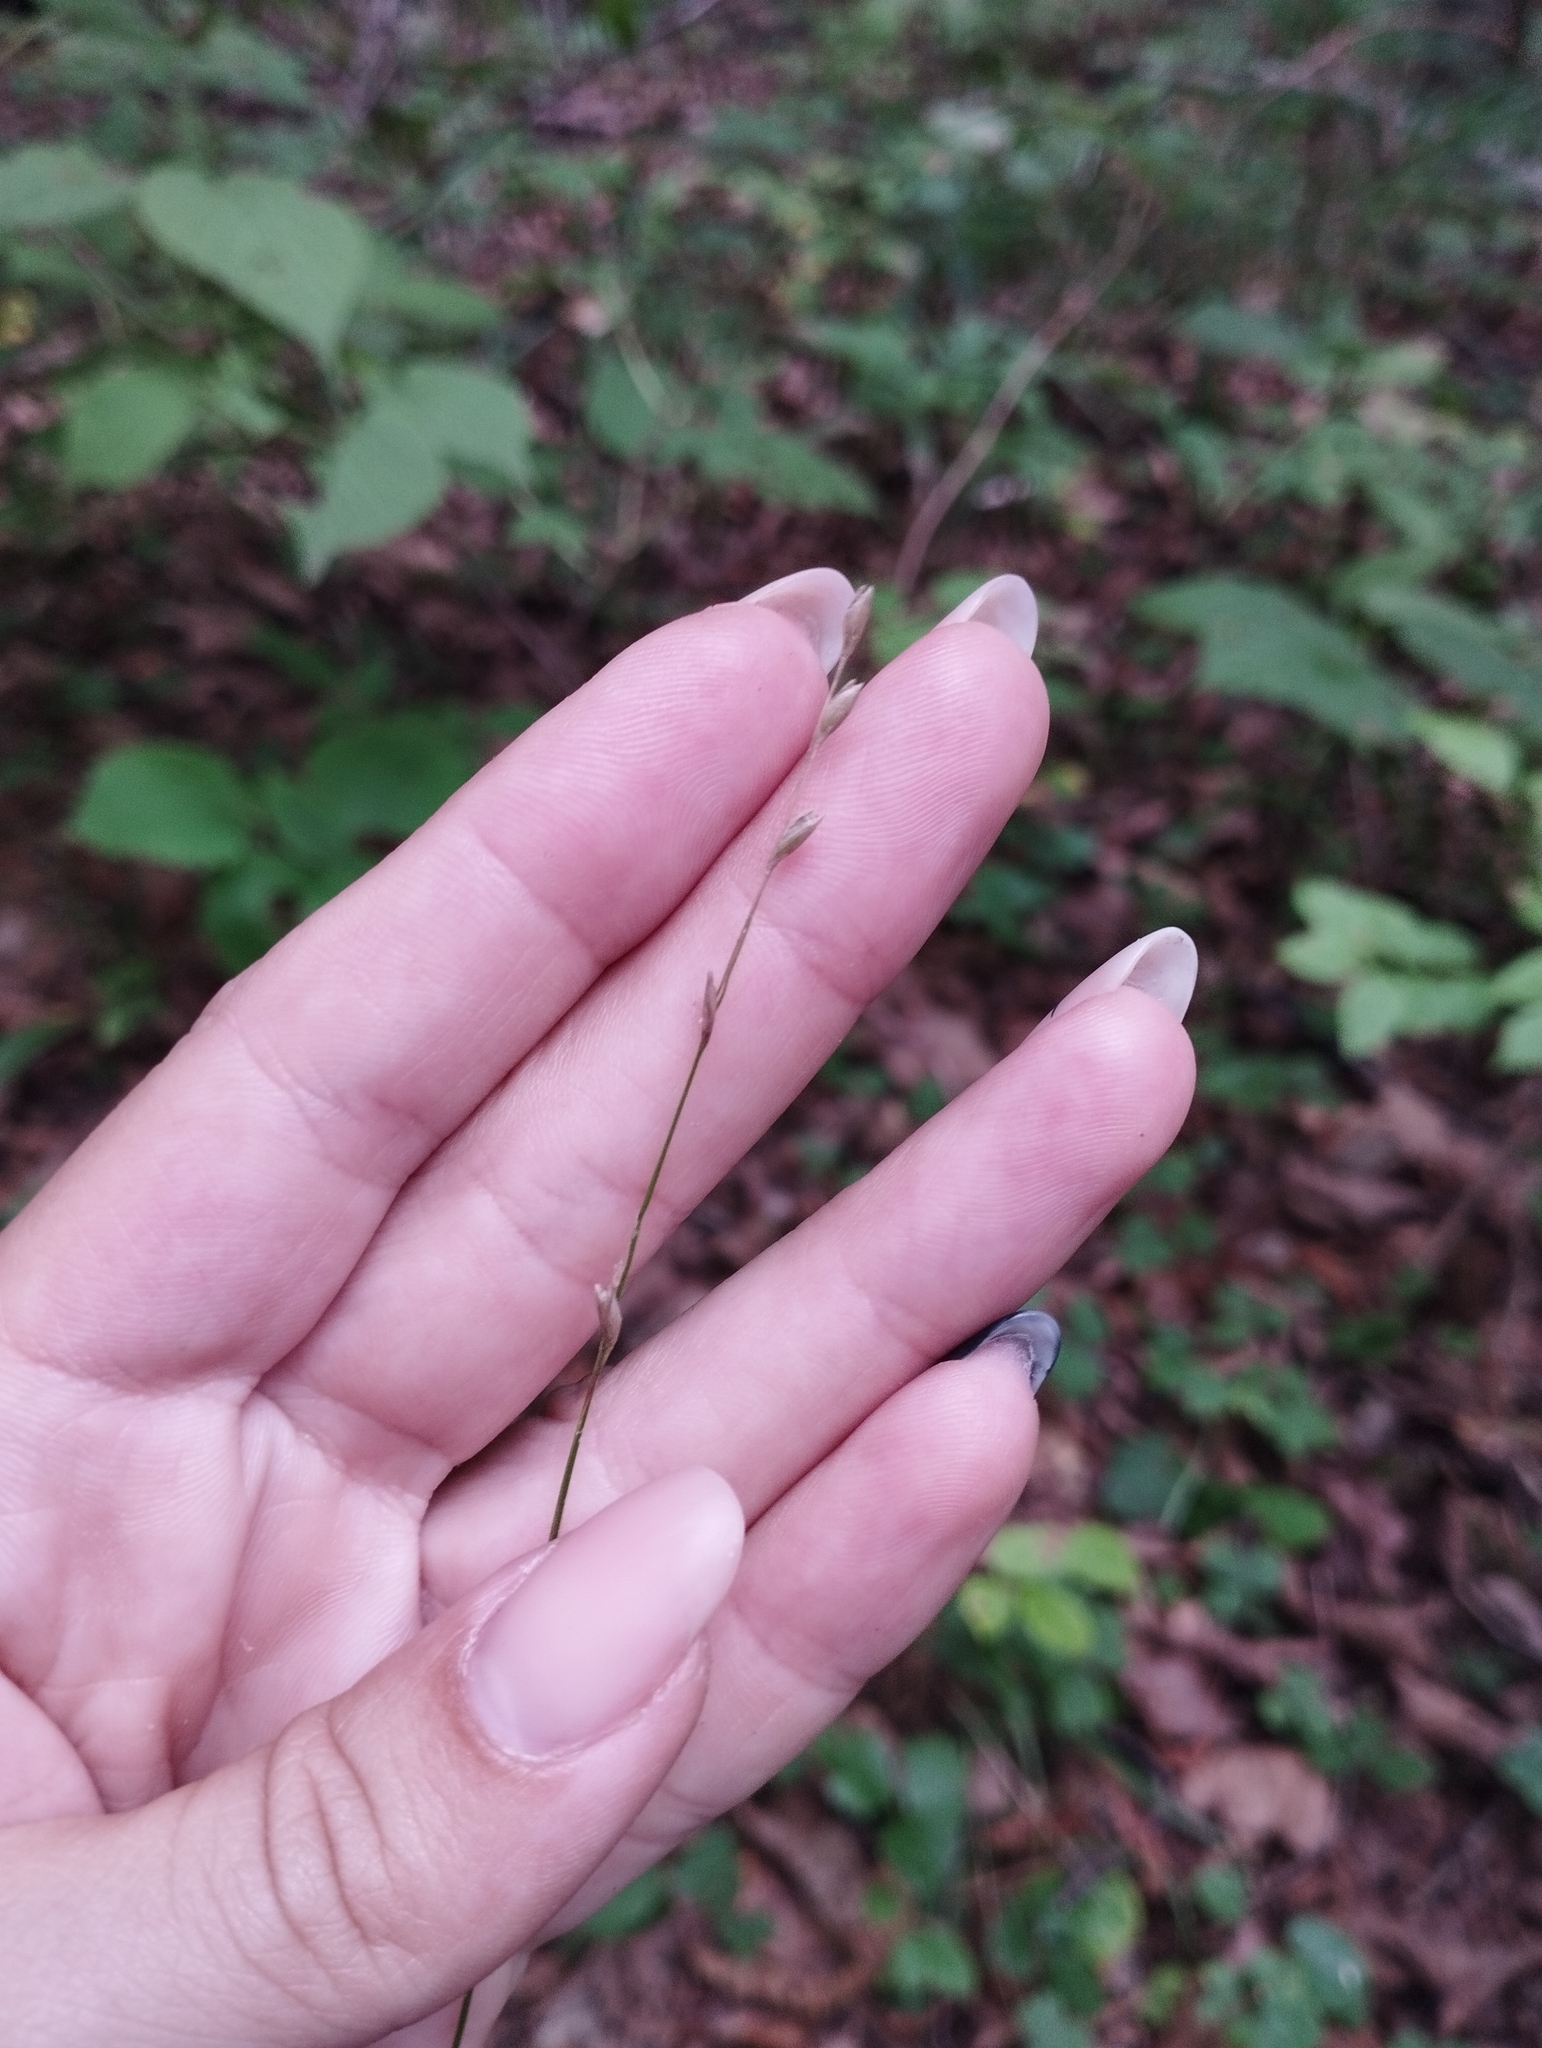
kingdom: Plantae
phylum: Tracheophyta
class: Liliopsida
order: Poales
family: Poaceae
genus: Diarrhena
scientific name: Diarrhena mandshurica
